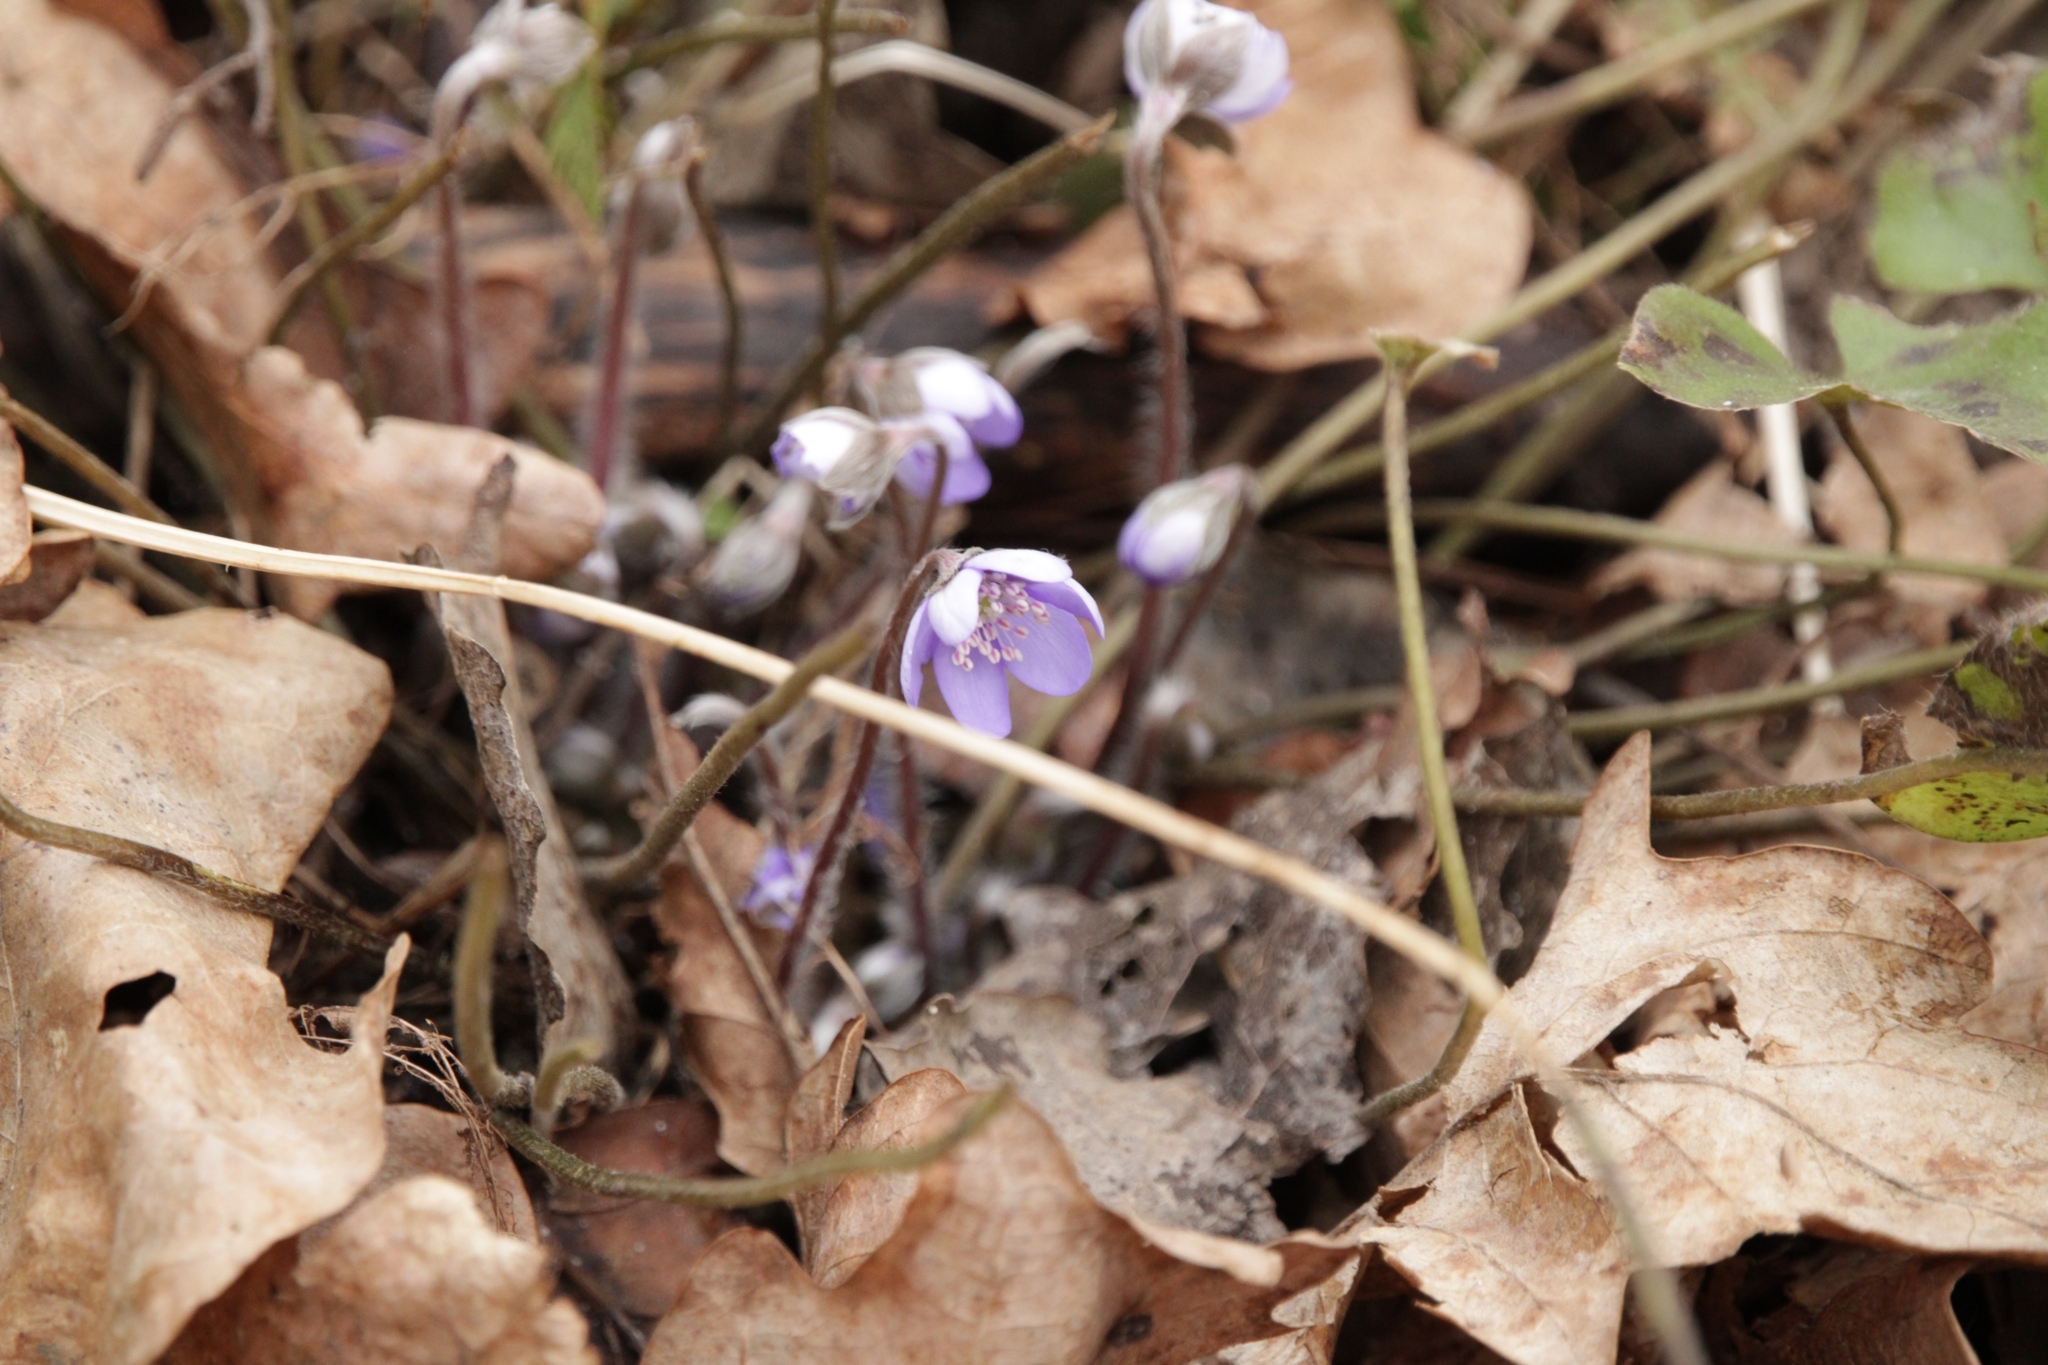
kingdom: Plantae
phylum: Tracheophyta
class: Magnoliopsida
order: Ranunculales
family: Ranunculaceae
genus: Hepatica
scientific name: Hepatica nobilis
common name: Liverleaf
